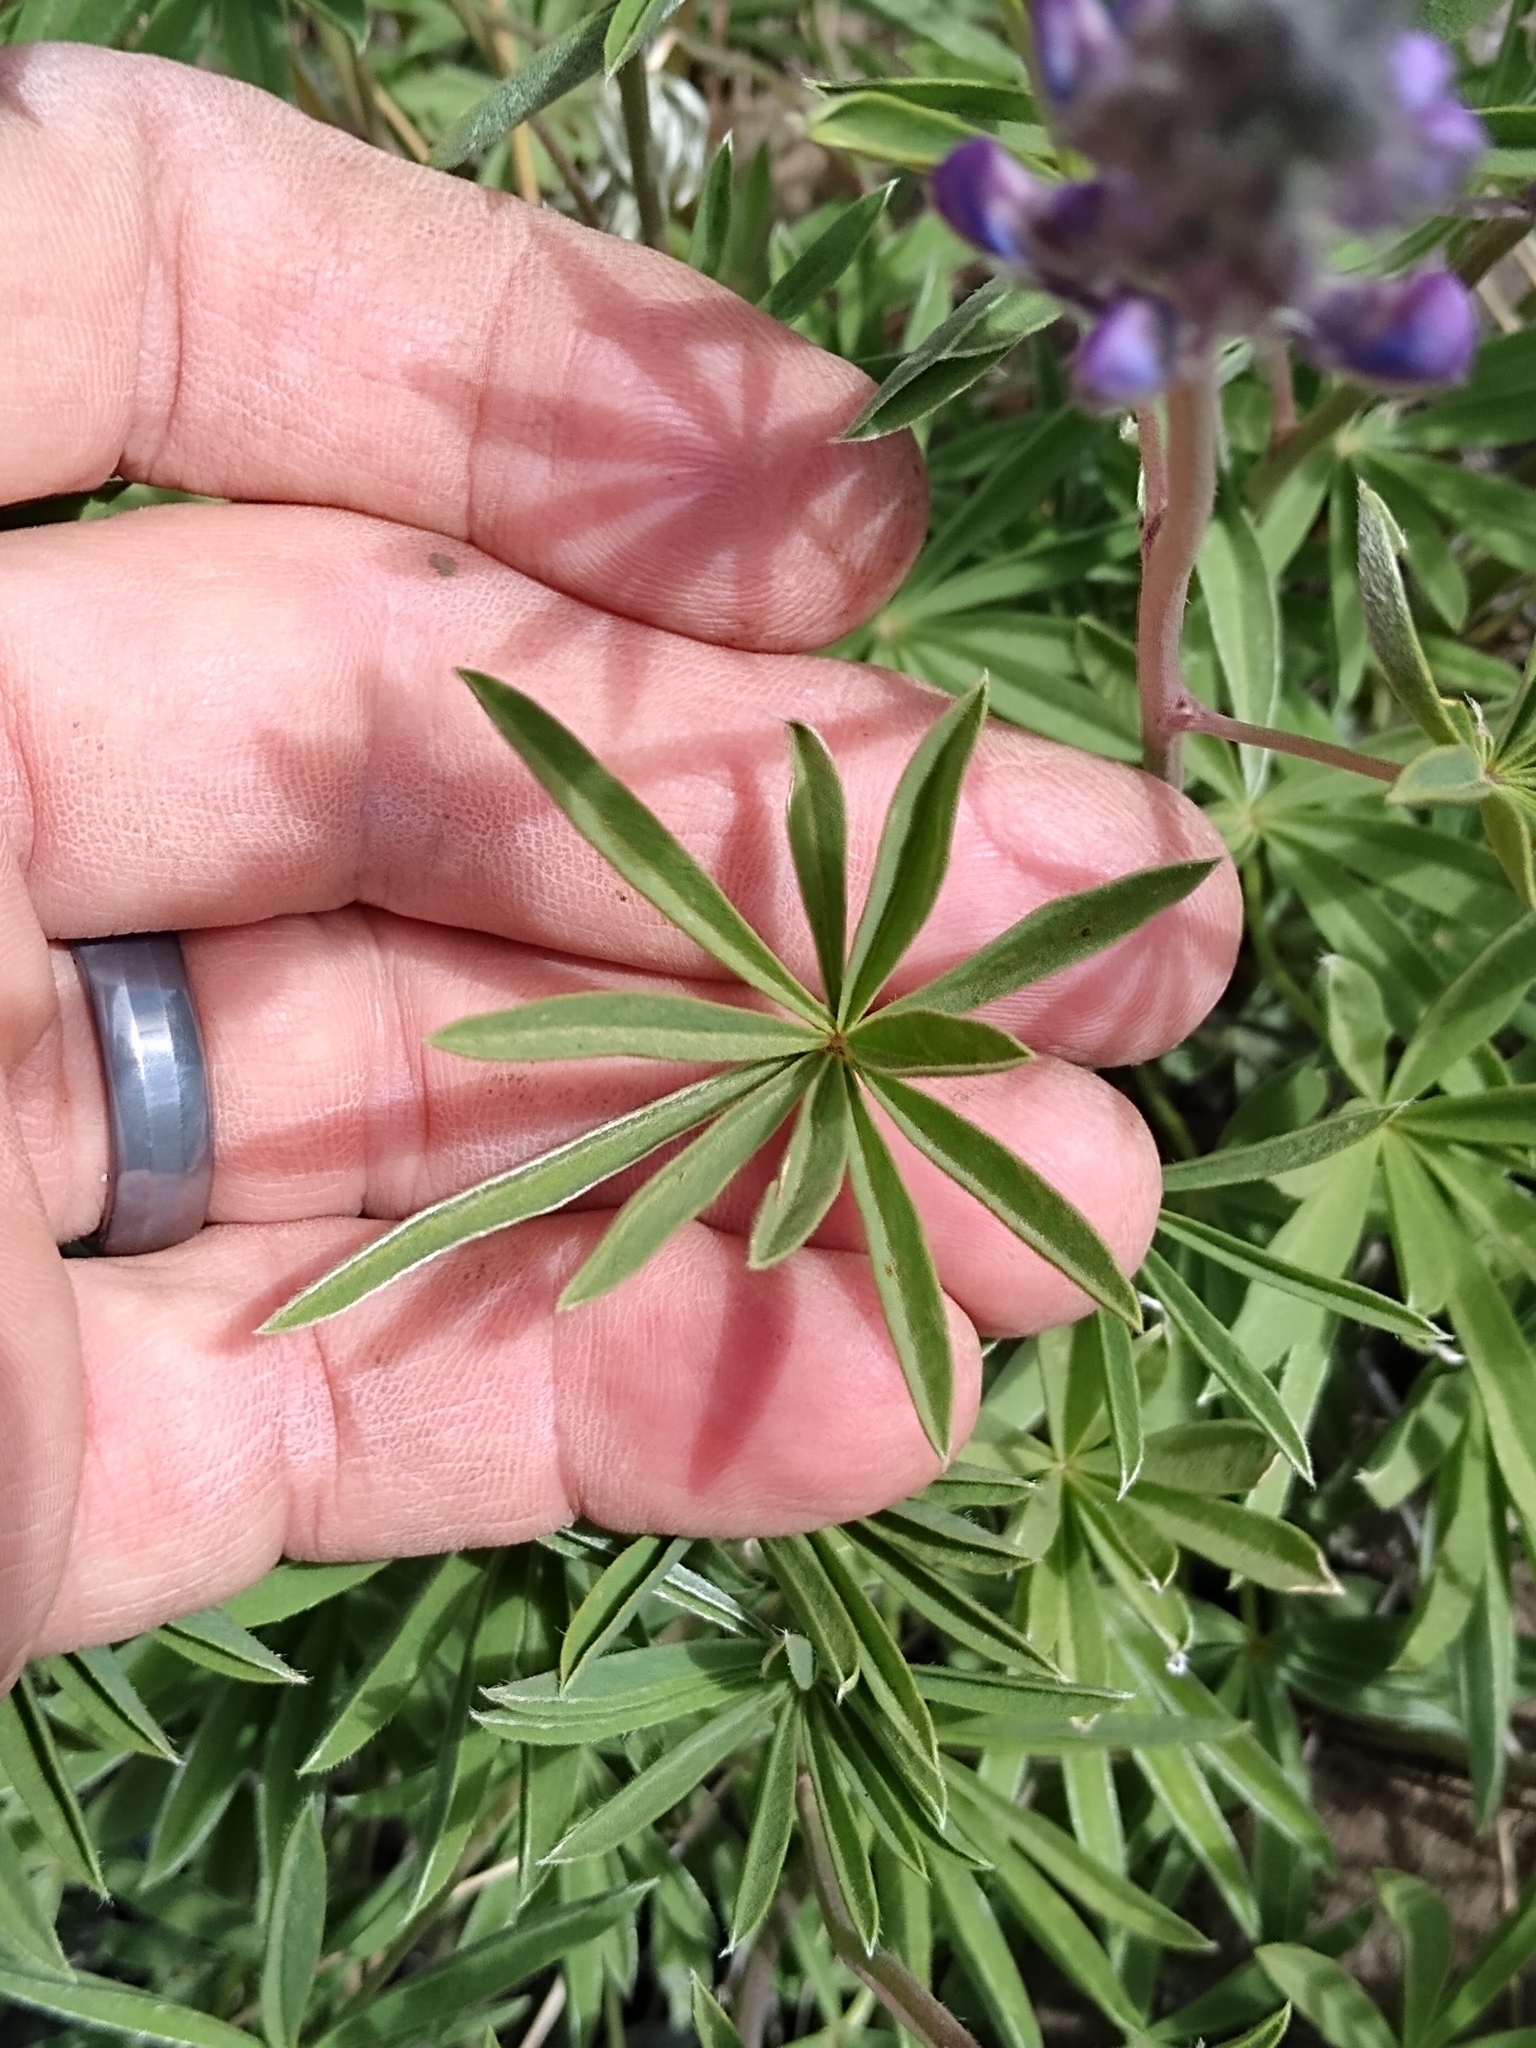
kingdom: Plantae
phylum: Tracheophyta
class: Magnoliopsida
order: Fabales
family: Fabaceae
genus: Lupinus
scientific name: Lupinus argenteus
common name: Silvery lupine
